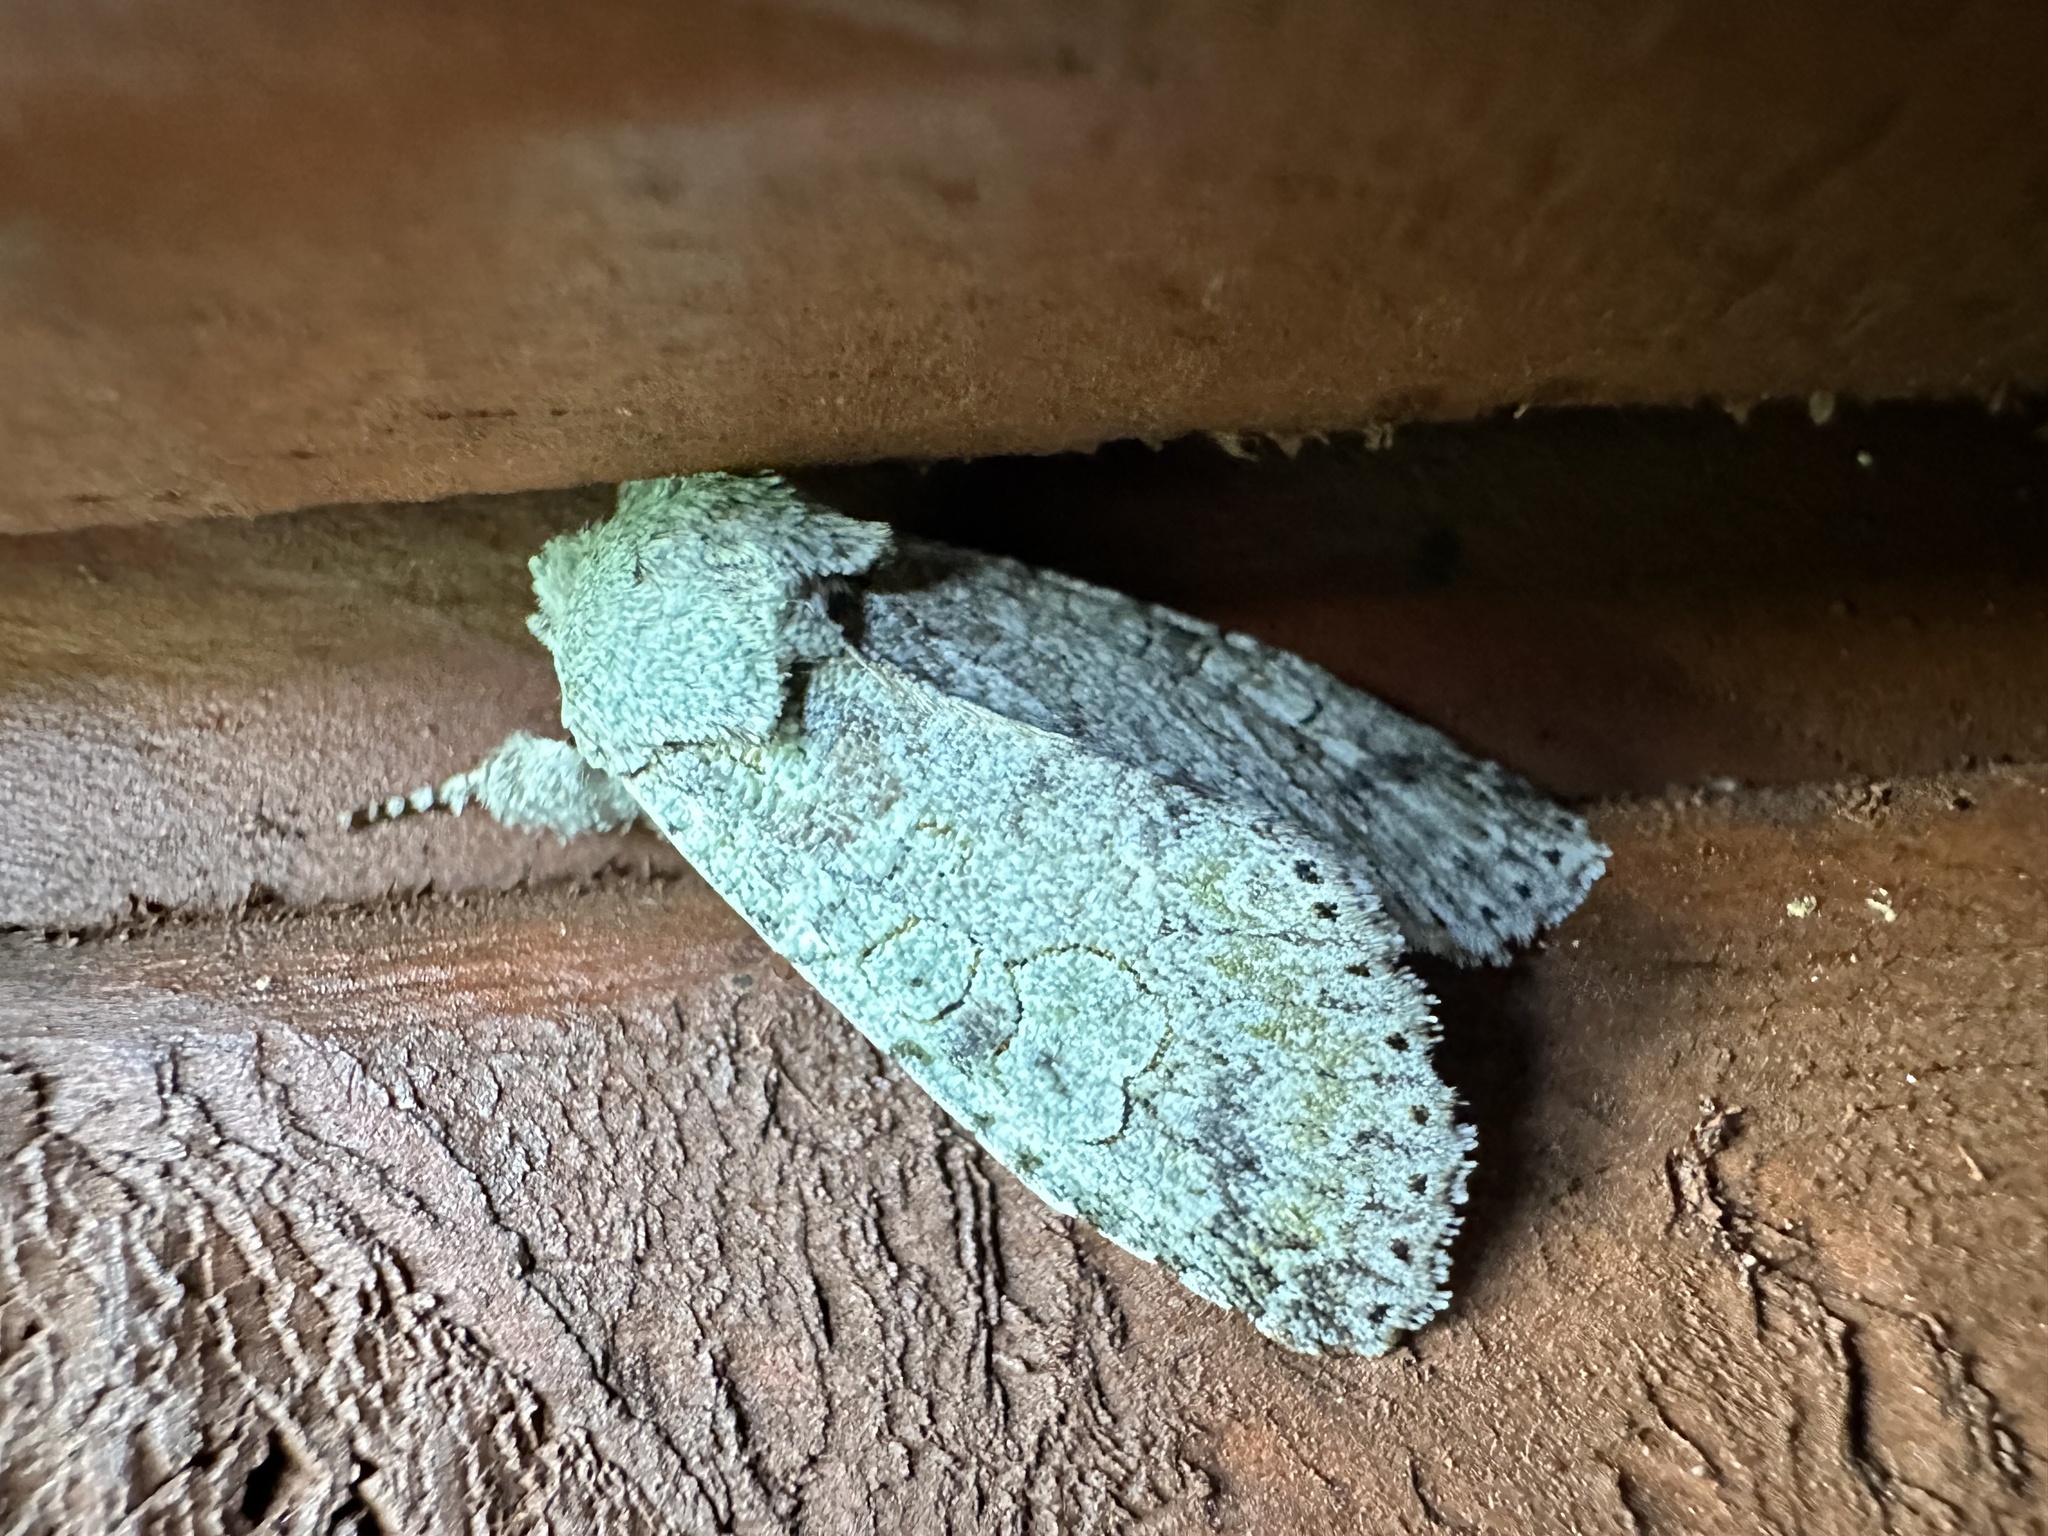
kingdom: Animalia
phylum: Arthropoda
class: Insecta
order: Lepidoptera
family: Noctuidae
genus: Pseudocerura
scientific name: Pseudocerura thoracica
